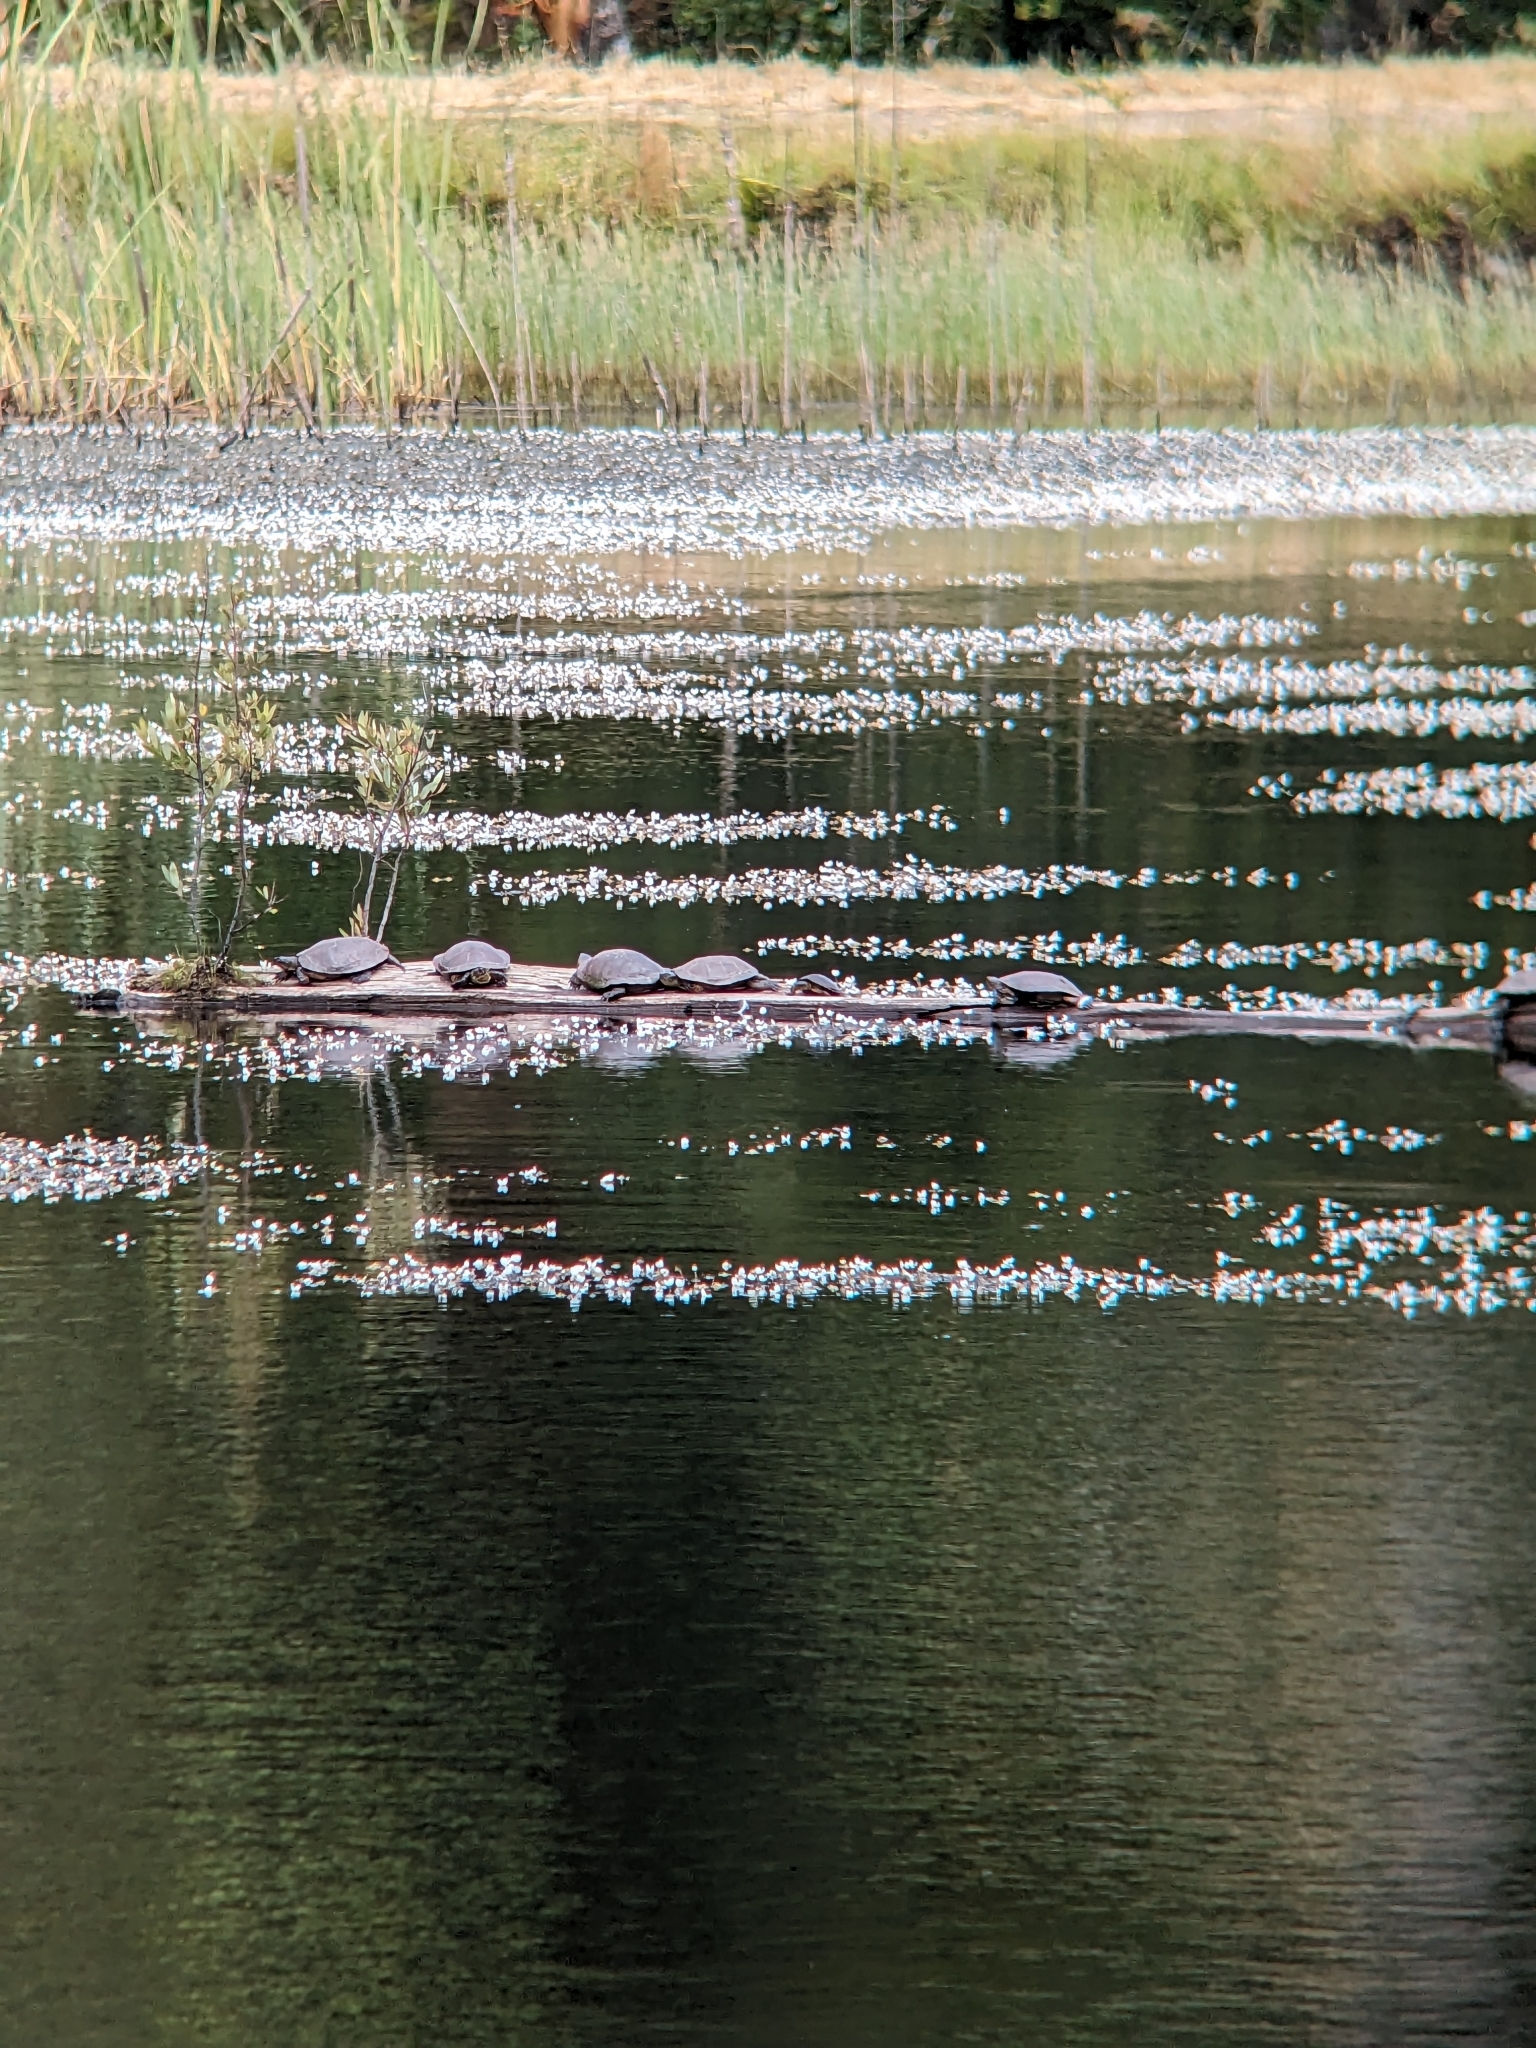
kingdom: Animalia
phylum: Chordata
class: Testudines
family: Emydidae
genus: Actinemys
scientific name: Actinemys marmorata
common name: Western pond turtle
